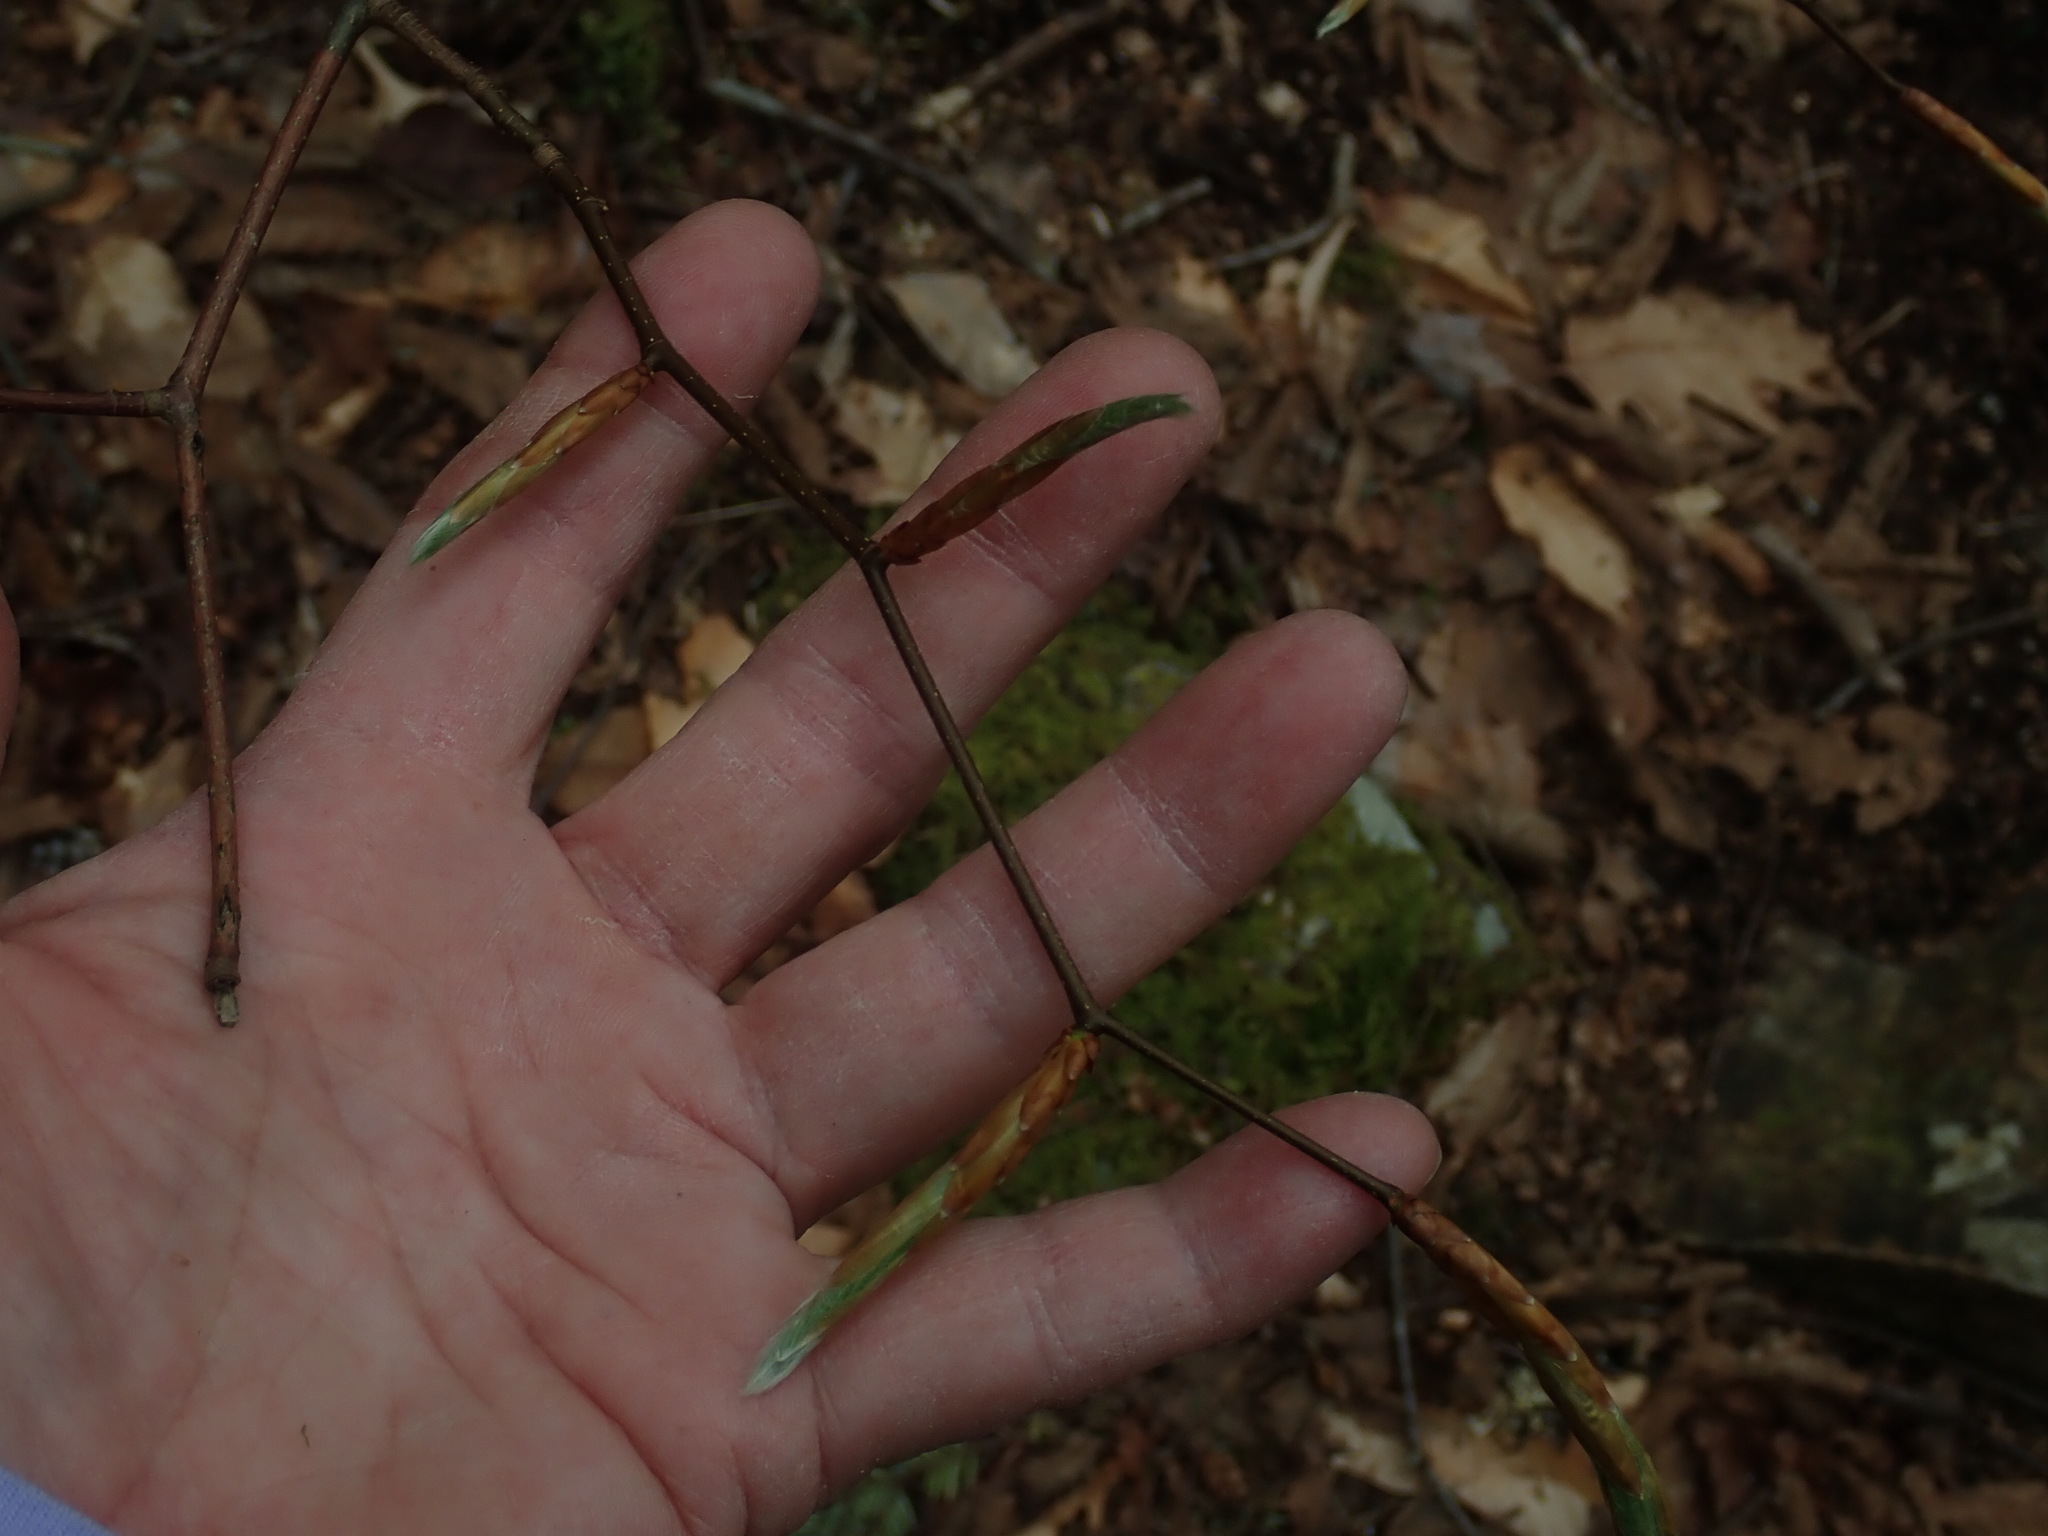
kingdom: Plantae
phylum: Tracheophyta
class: Magnoliopsida
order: Fagales
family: Fagaceae
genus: Fagus
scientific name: Fagus grandifolia
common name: American beech
